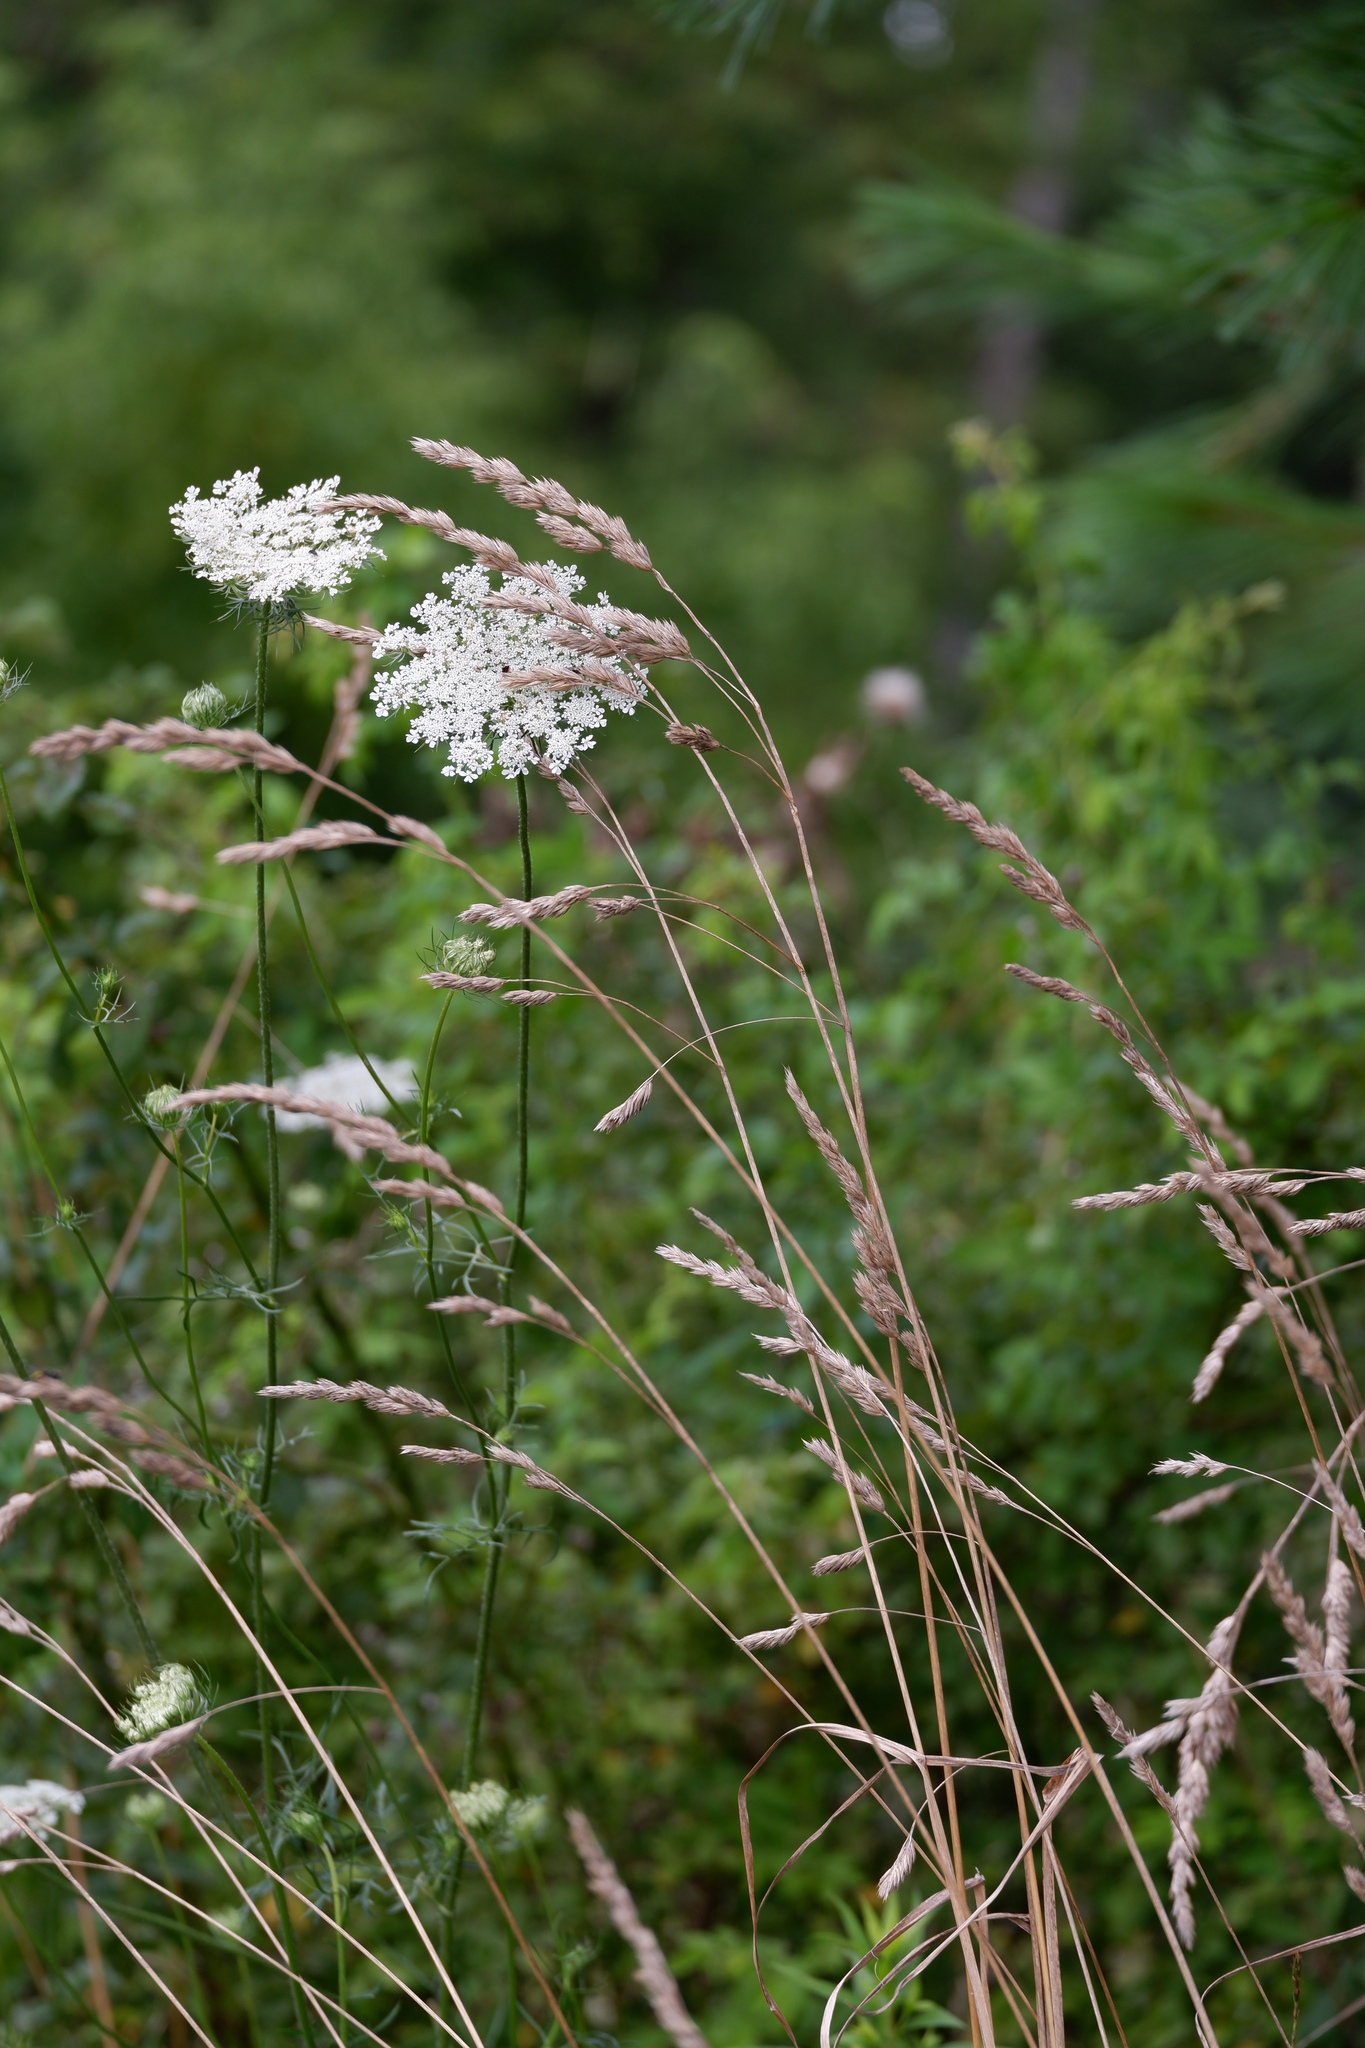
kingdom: Plantae
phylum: Tracheophyta
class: Liliopsida
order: Poales
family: Poaceae
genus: Dactylis
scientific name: Dactylis glomerata
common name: Orchardgrass
